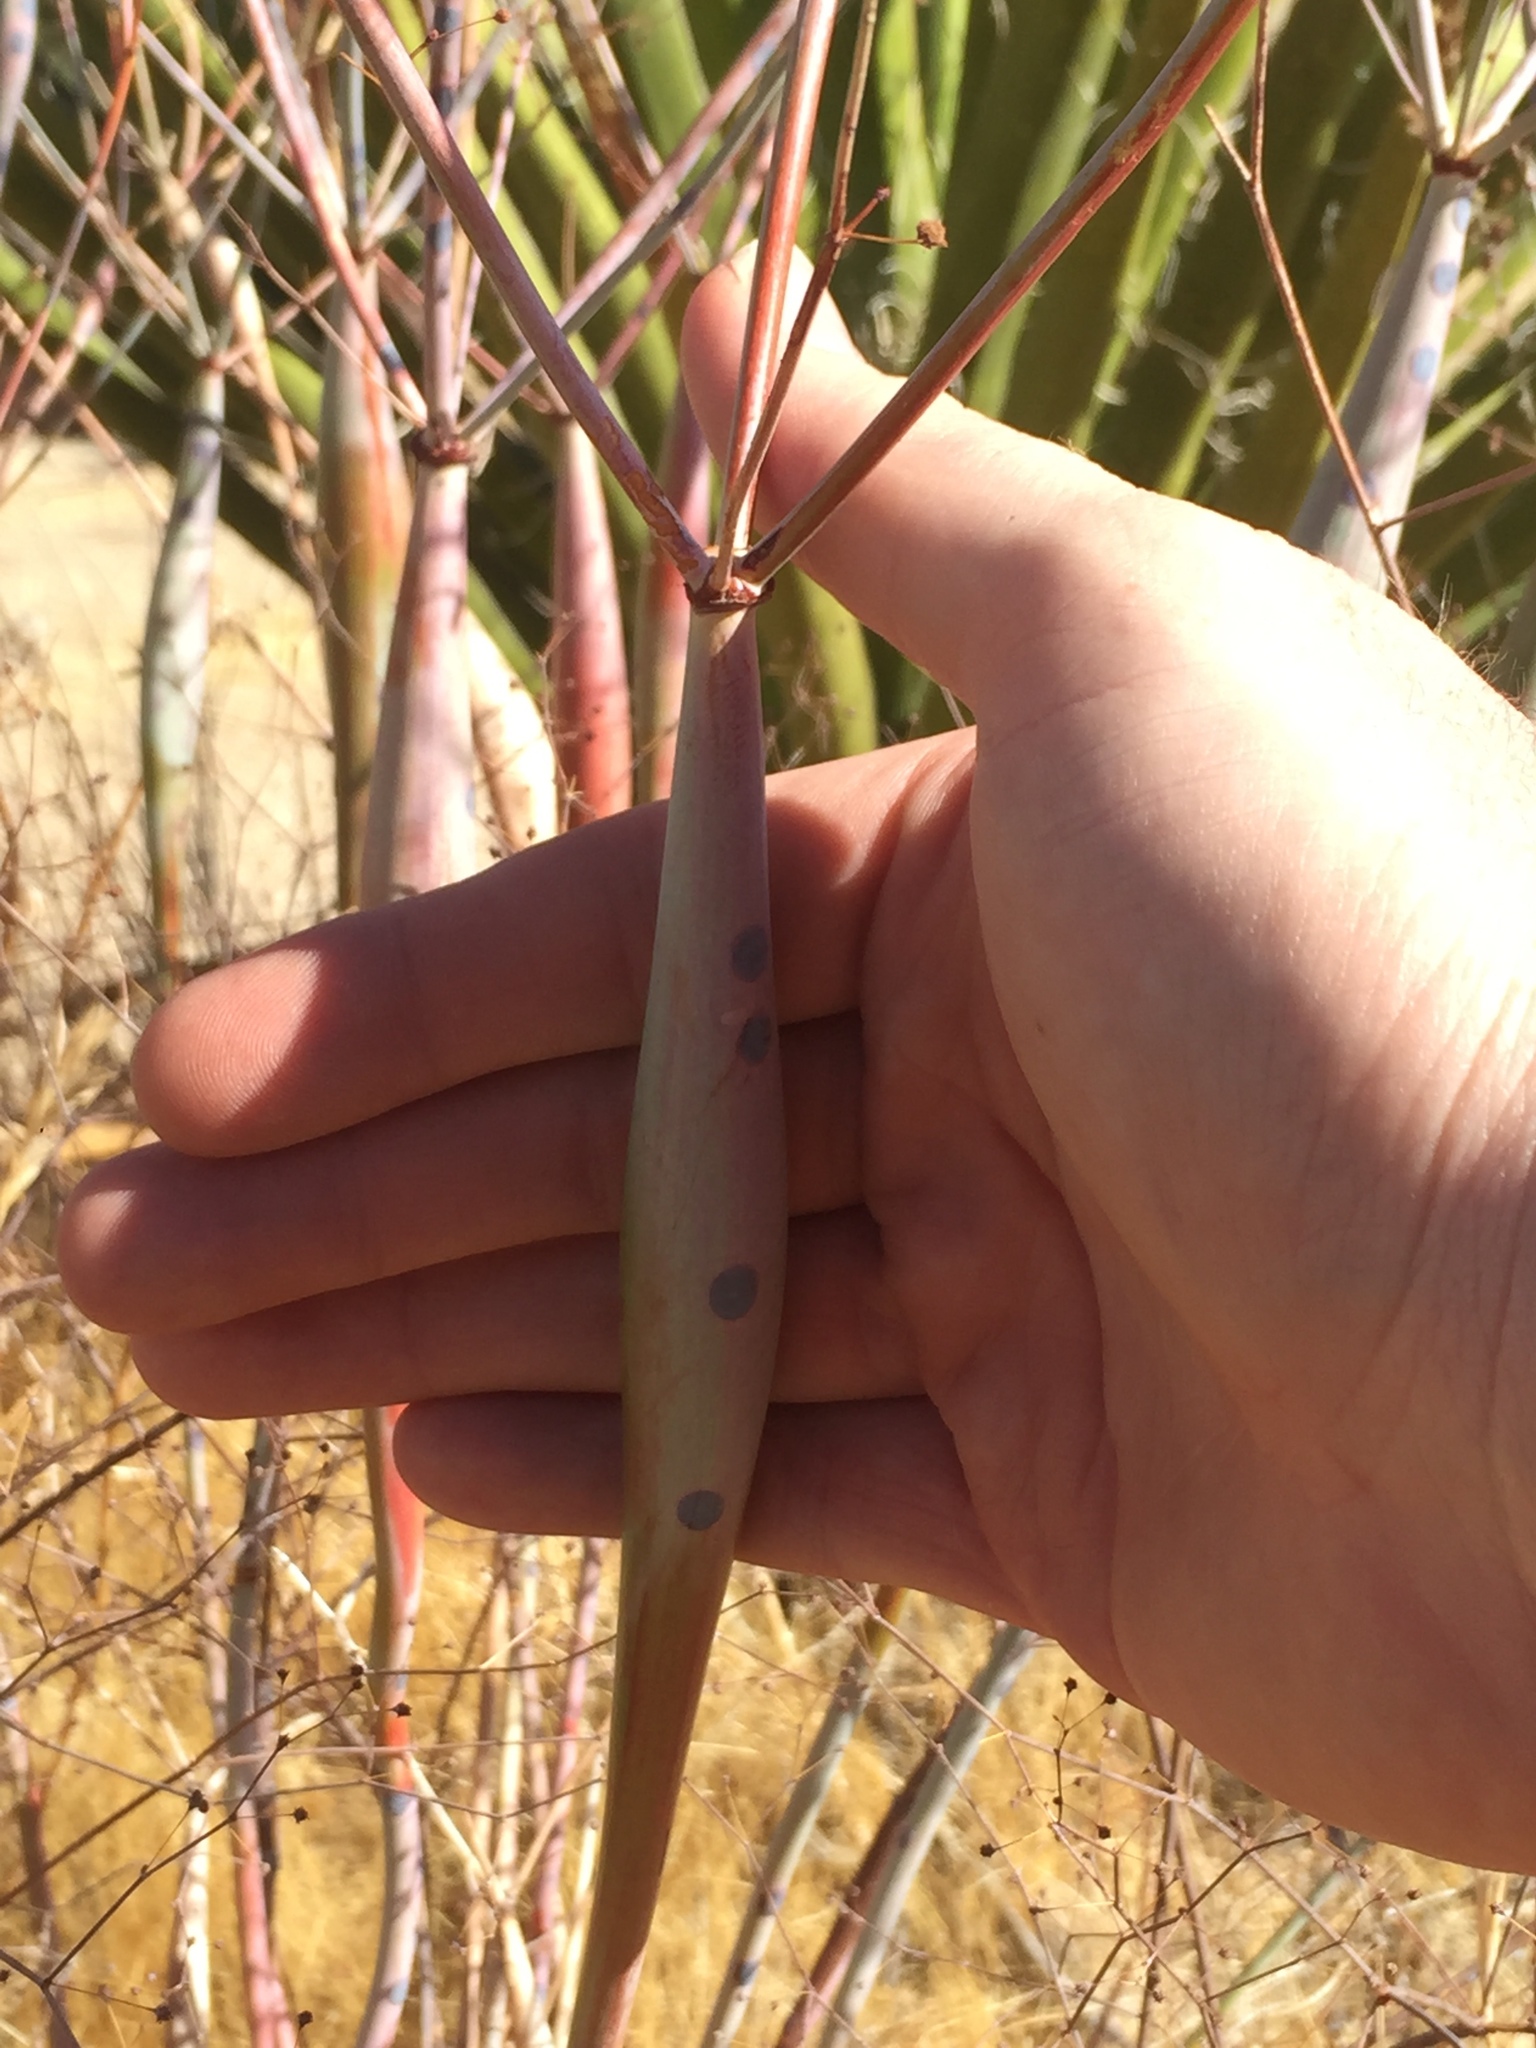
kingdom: Plantae
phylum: Tracheophyta
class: Magnoliopsida
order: Caryophyllales
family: Polygonaceae
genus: Eriogonum
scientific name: Eriogonum inflatum
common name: Desert trumpet
